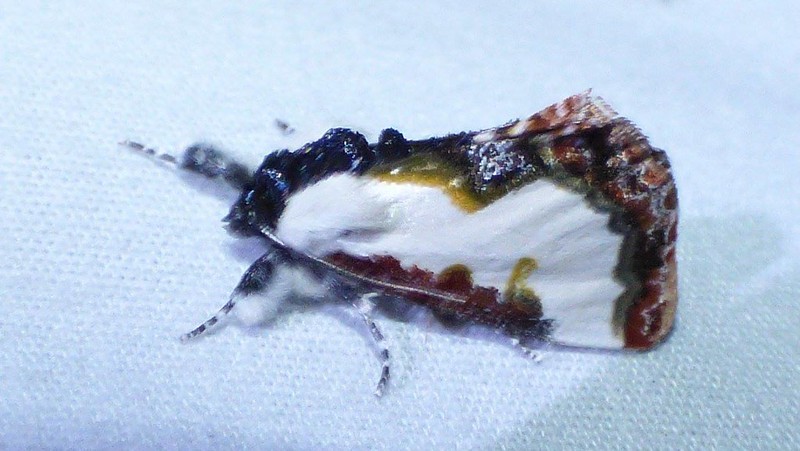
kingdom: Animalia
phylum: Arthropoda
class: Insecta
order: Lepidoptera
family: Noctuidae
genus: Eudryas
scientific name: Eudryas unio
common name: Pearly wood-nymph
